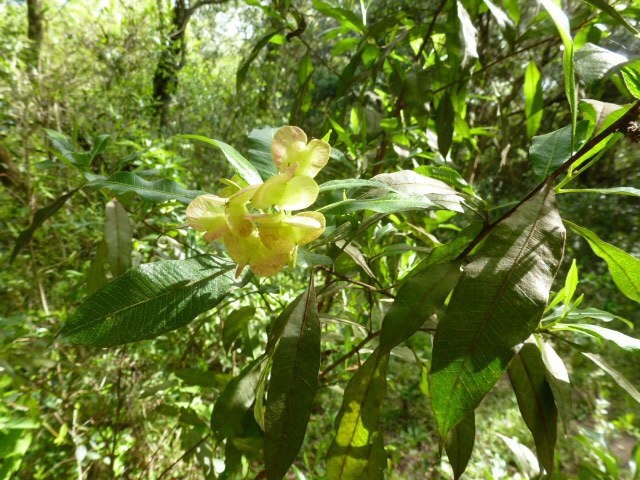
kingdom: Plantae
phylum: Tracheophyta
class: Magnoliopsida
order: Sapindales
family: Sapindaceae
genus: Dodonaea
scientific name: Dodonaea viscosa
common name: Hopbush
